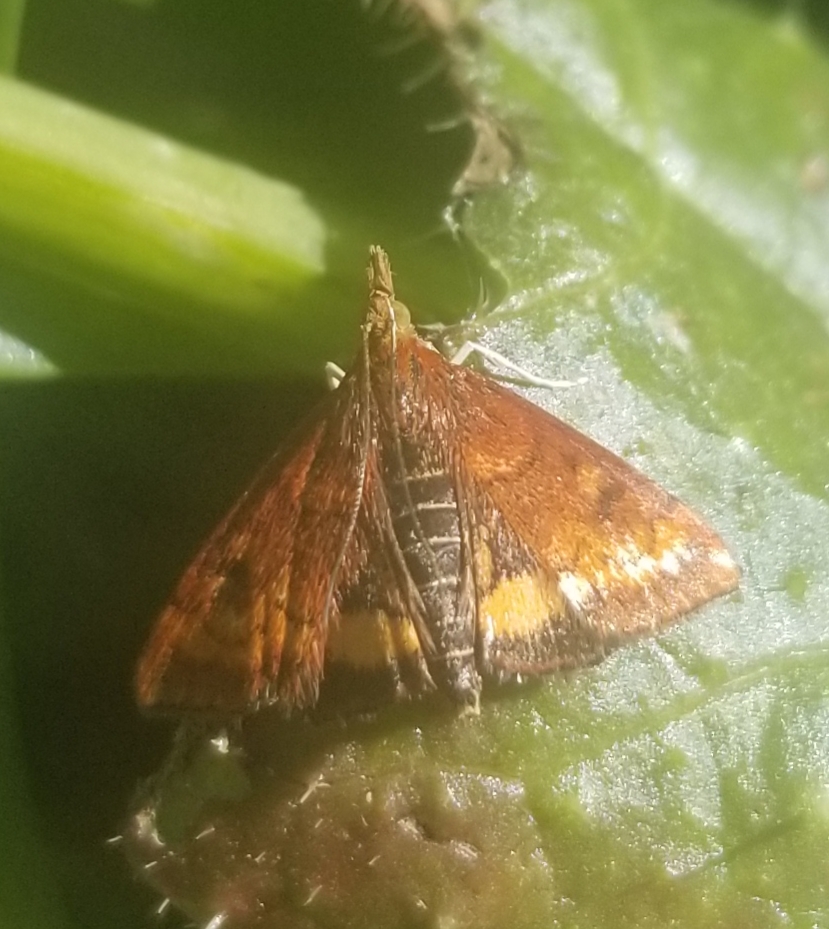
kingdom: Animalia
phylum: Arthropoda
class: Insecta
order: Lepidoptera
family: Crambidae
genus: Pyrausta
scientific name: Pyrausta californicalis
